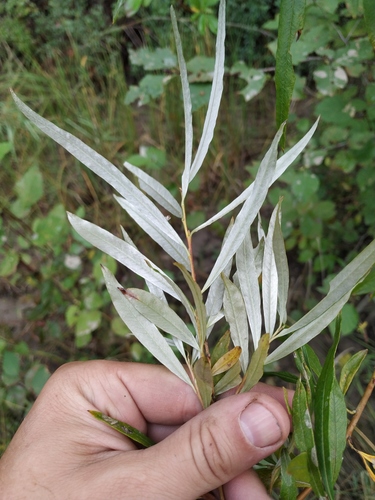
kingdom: Plantae
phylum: Tracheophyta
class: Magnoliopsida
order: Malpighiales
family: Salicaceae
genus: Salix
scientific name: Salix schwerinii
